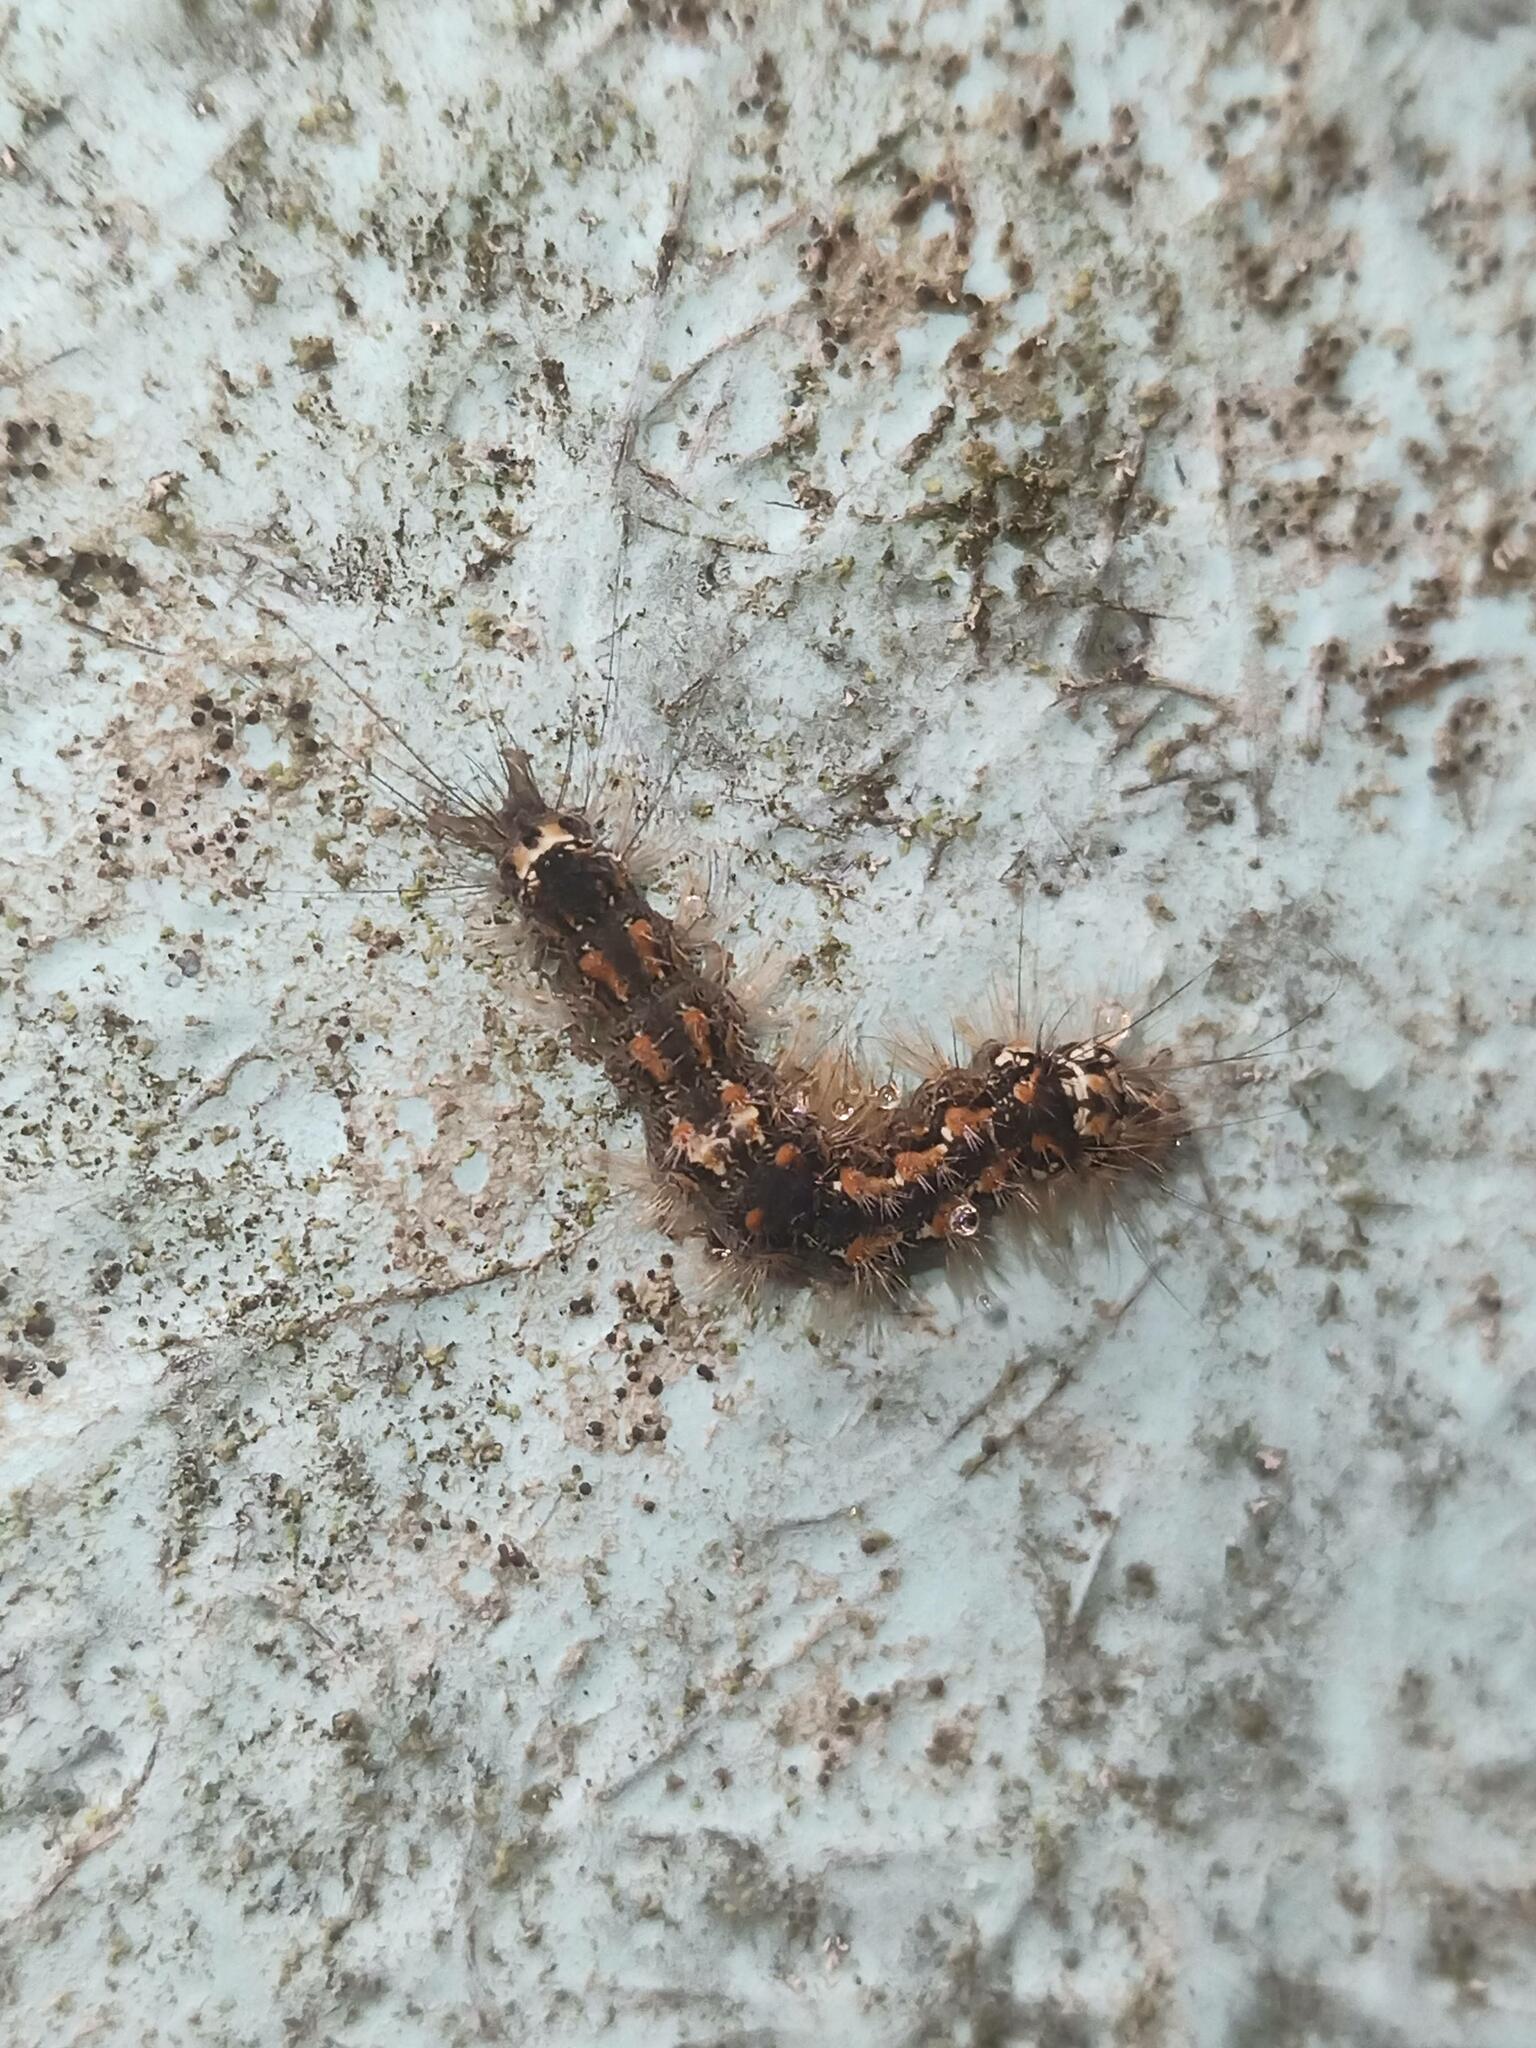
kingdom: Animalia
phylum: Arthropoda
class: Insecta
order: Lepidoptera
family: Erebidae
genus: Wittia
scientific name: Wittia sororcula
